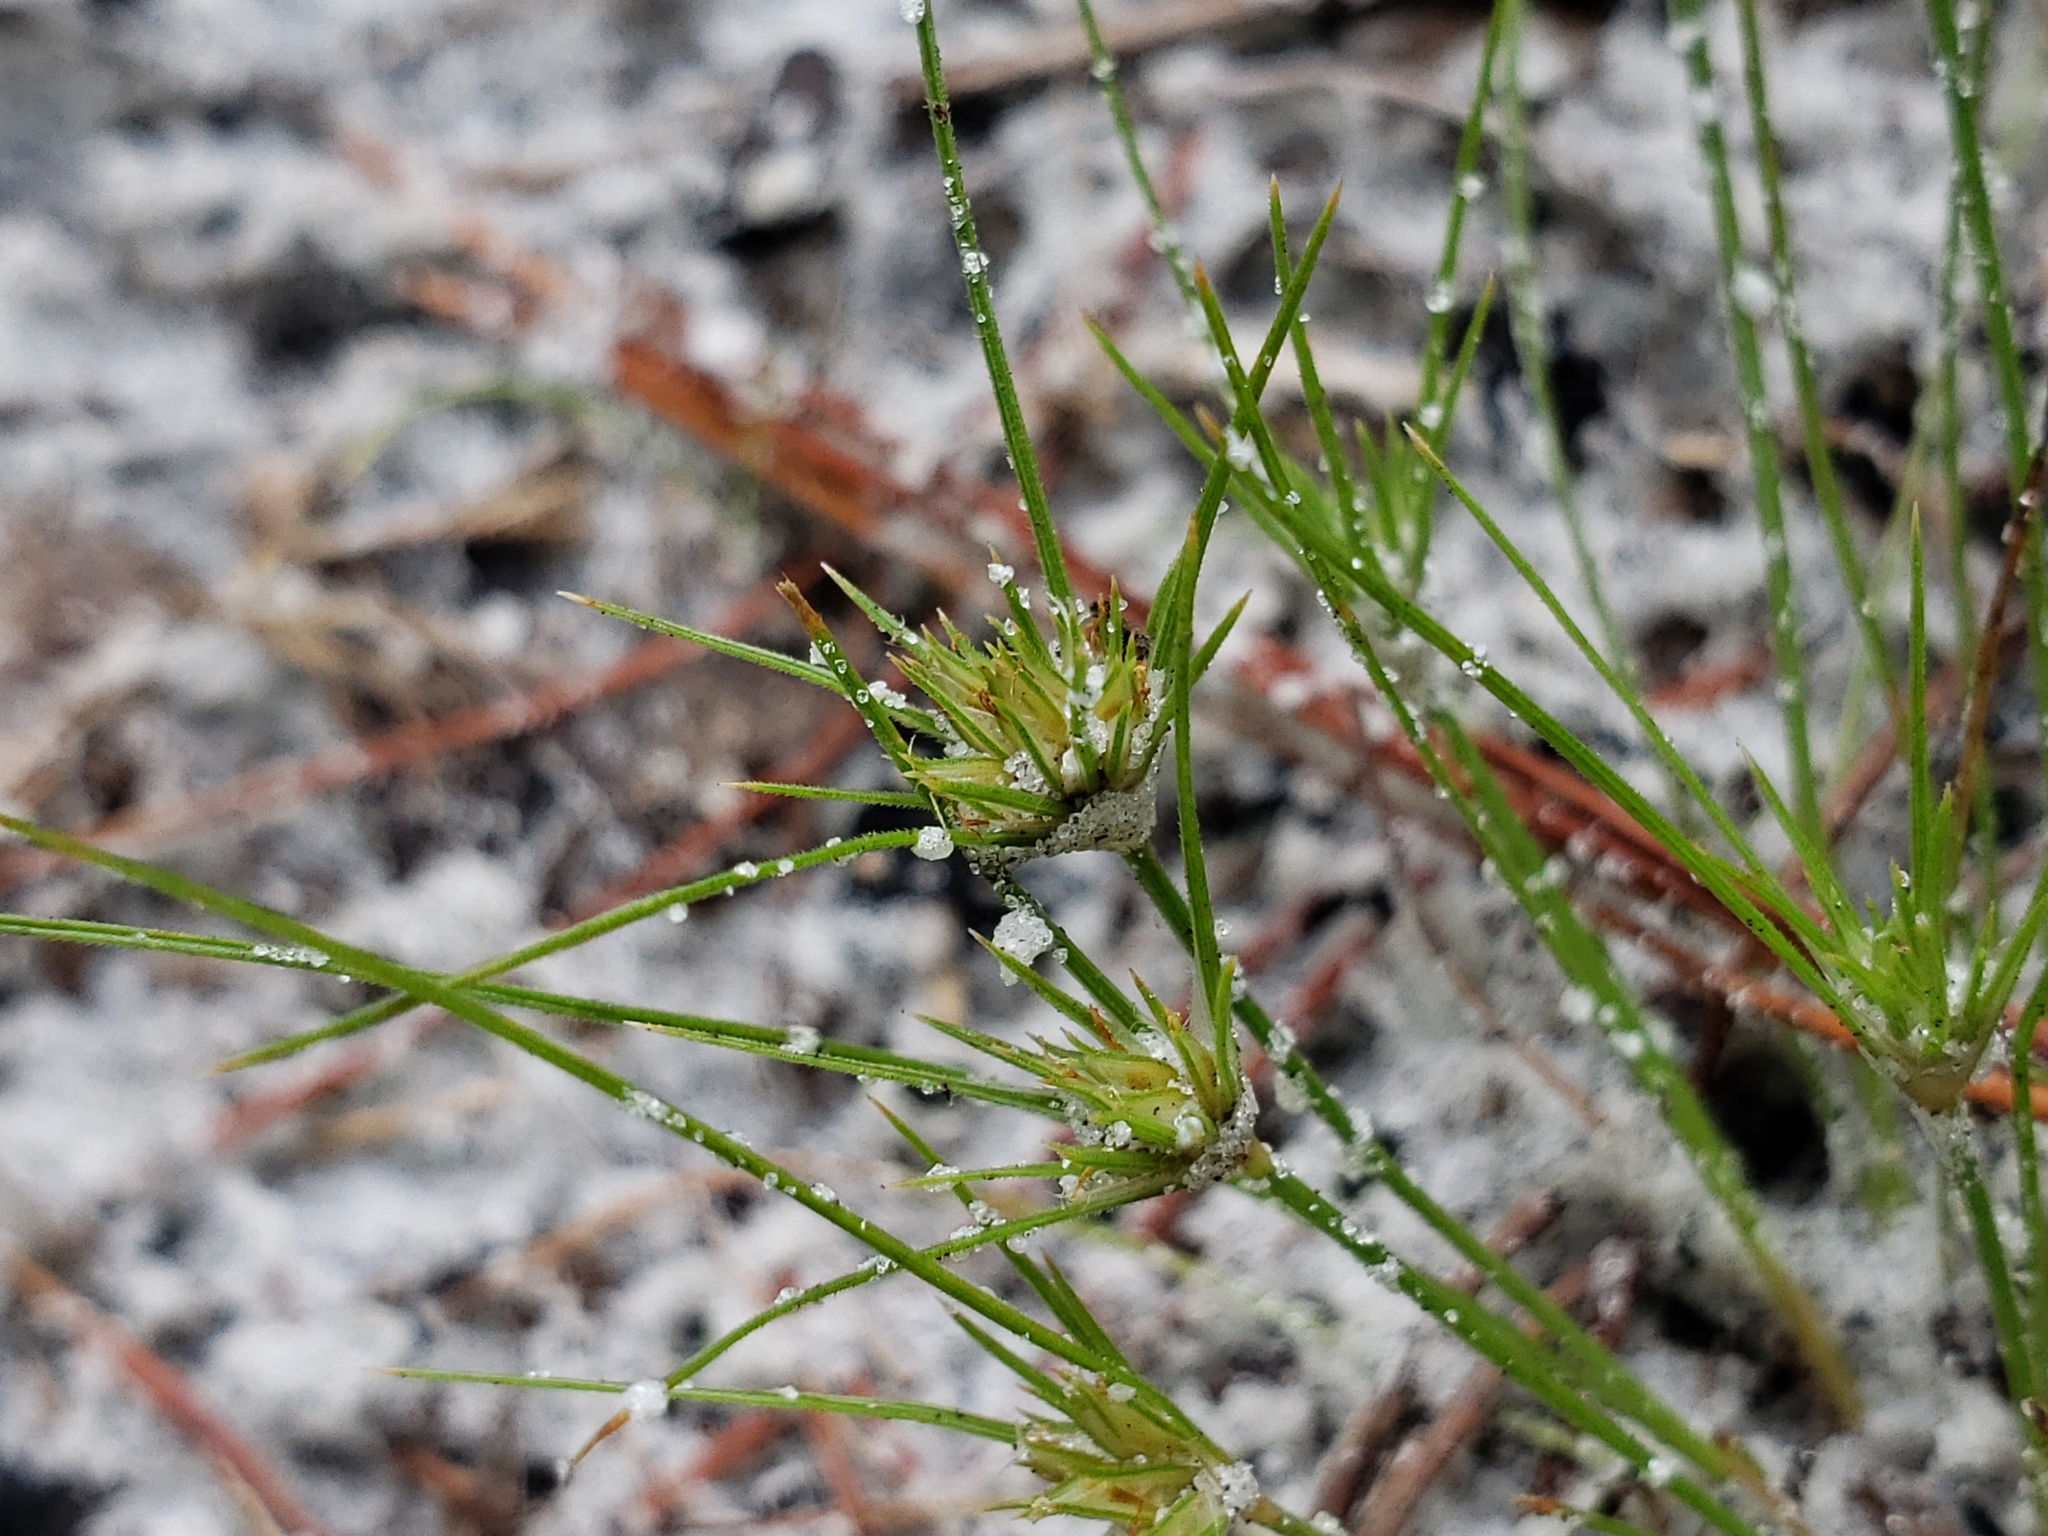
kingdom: Plantae
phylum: Tracheophyta
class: Liliopsida
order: Poales
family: Cyperaceae
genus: Bulbostylis
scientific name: Bulbostylis stenophylla
